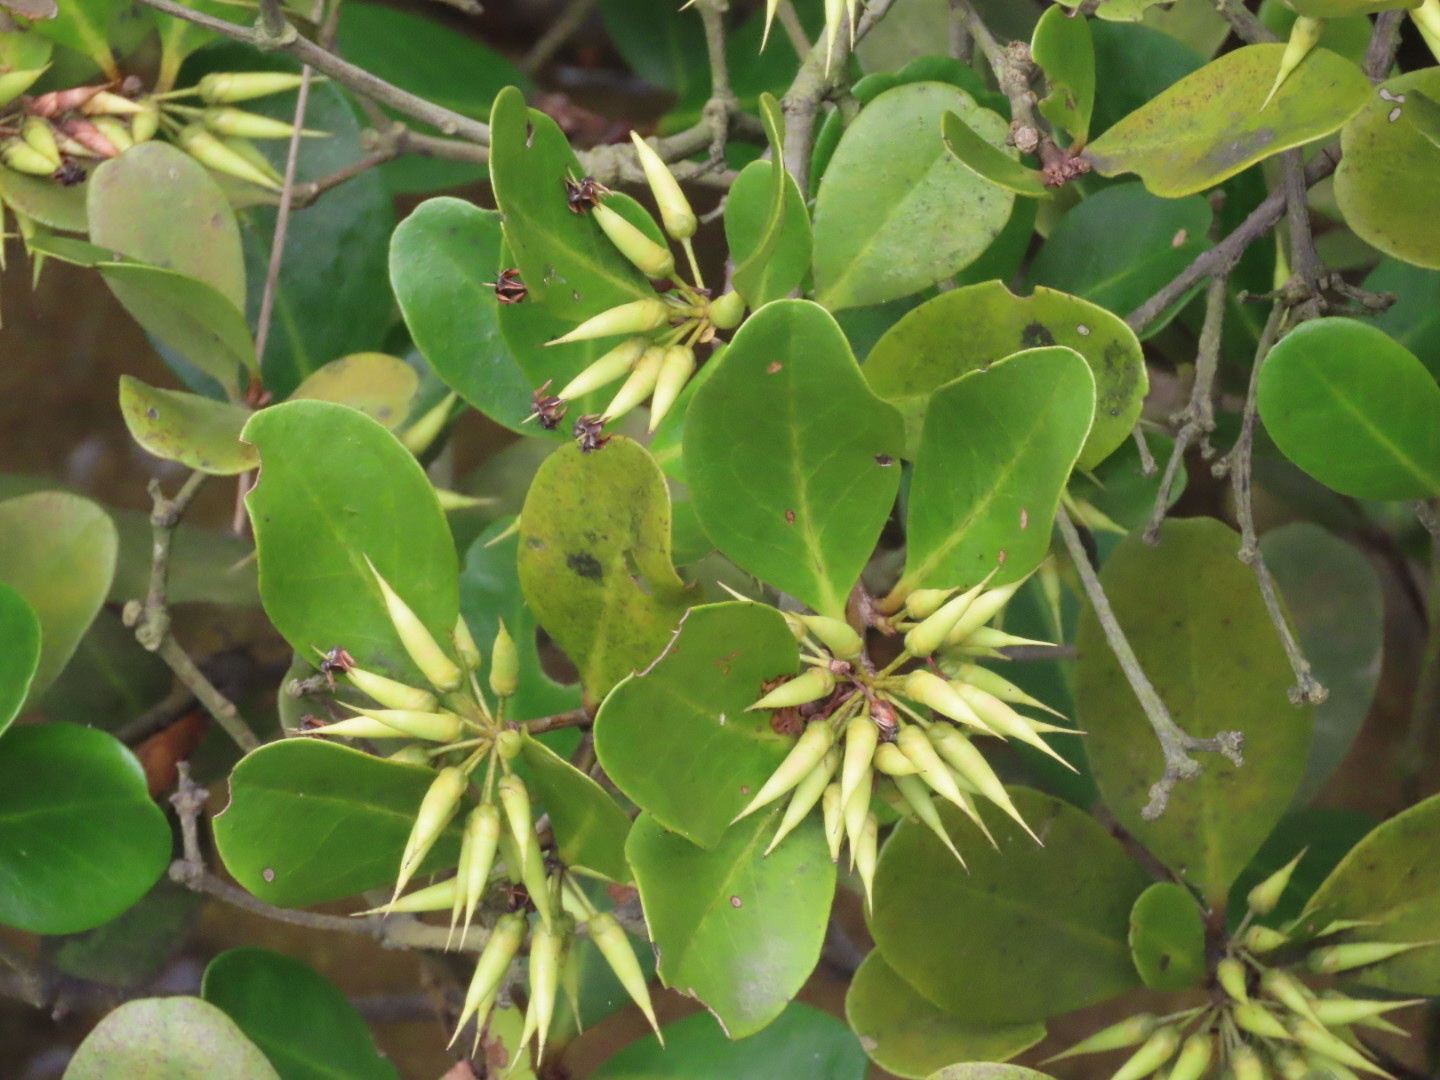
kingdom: Plantae
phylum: Tracheophyta
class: Magnoliopsida
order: Ericales
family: Primulaceae
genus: Aegiceras
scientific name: Aegiceras corniculatum
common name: River mangrove
